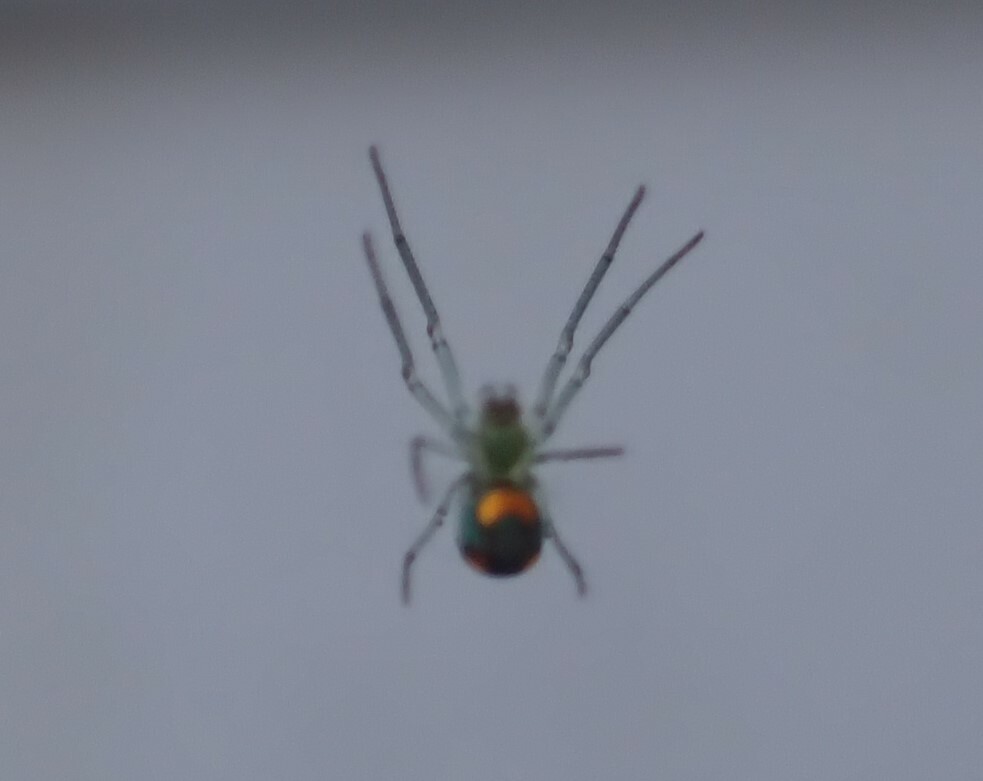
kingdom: Animalia
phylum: Arthropoda
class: Arachnida
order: Araneae
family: Tetragnathidae
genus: Leucauge
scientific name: Leucauge argyrobapta
